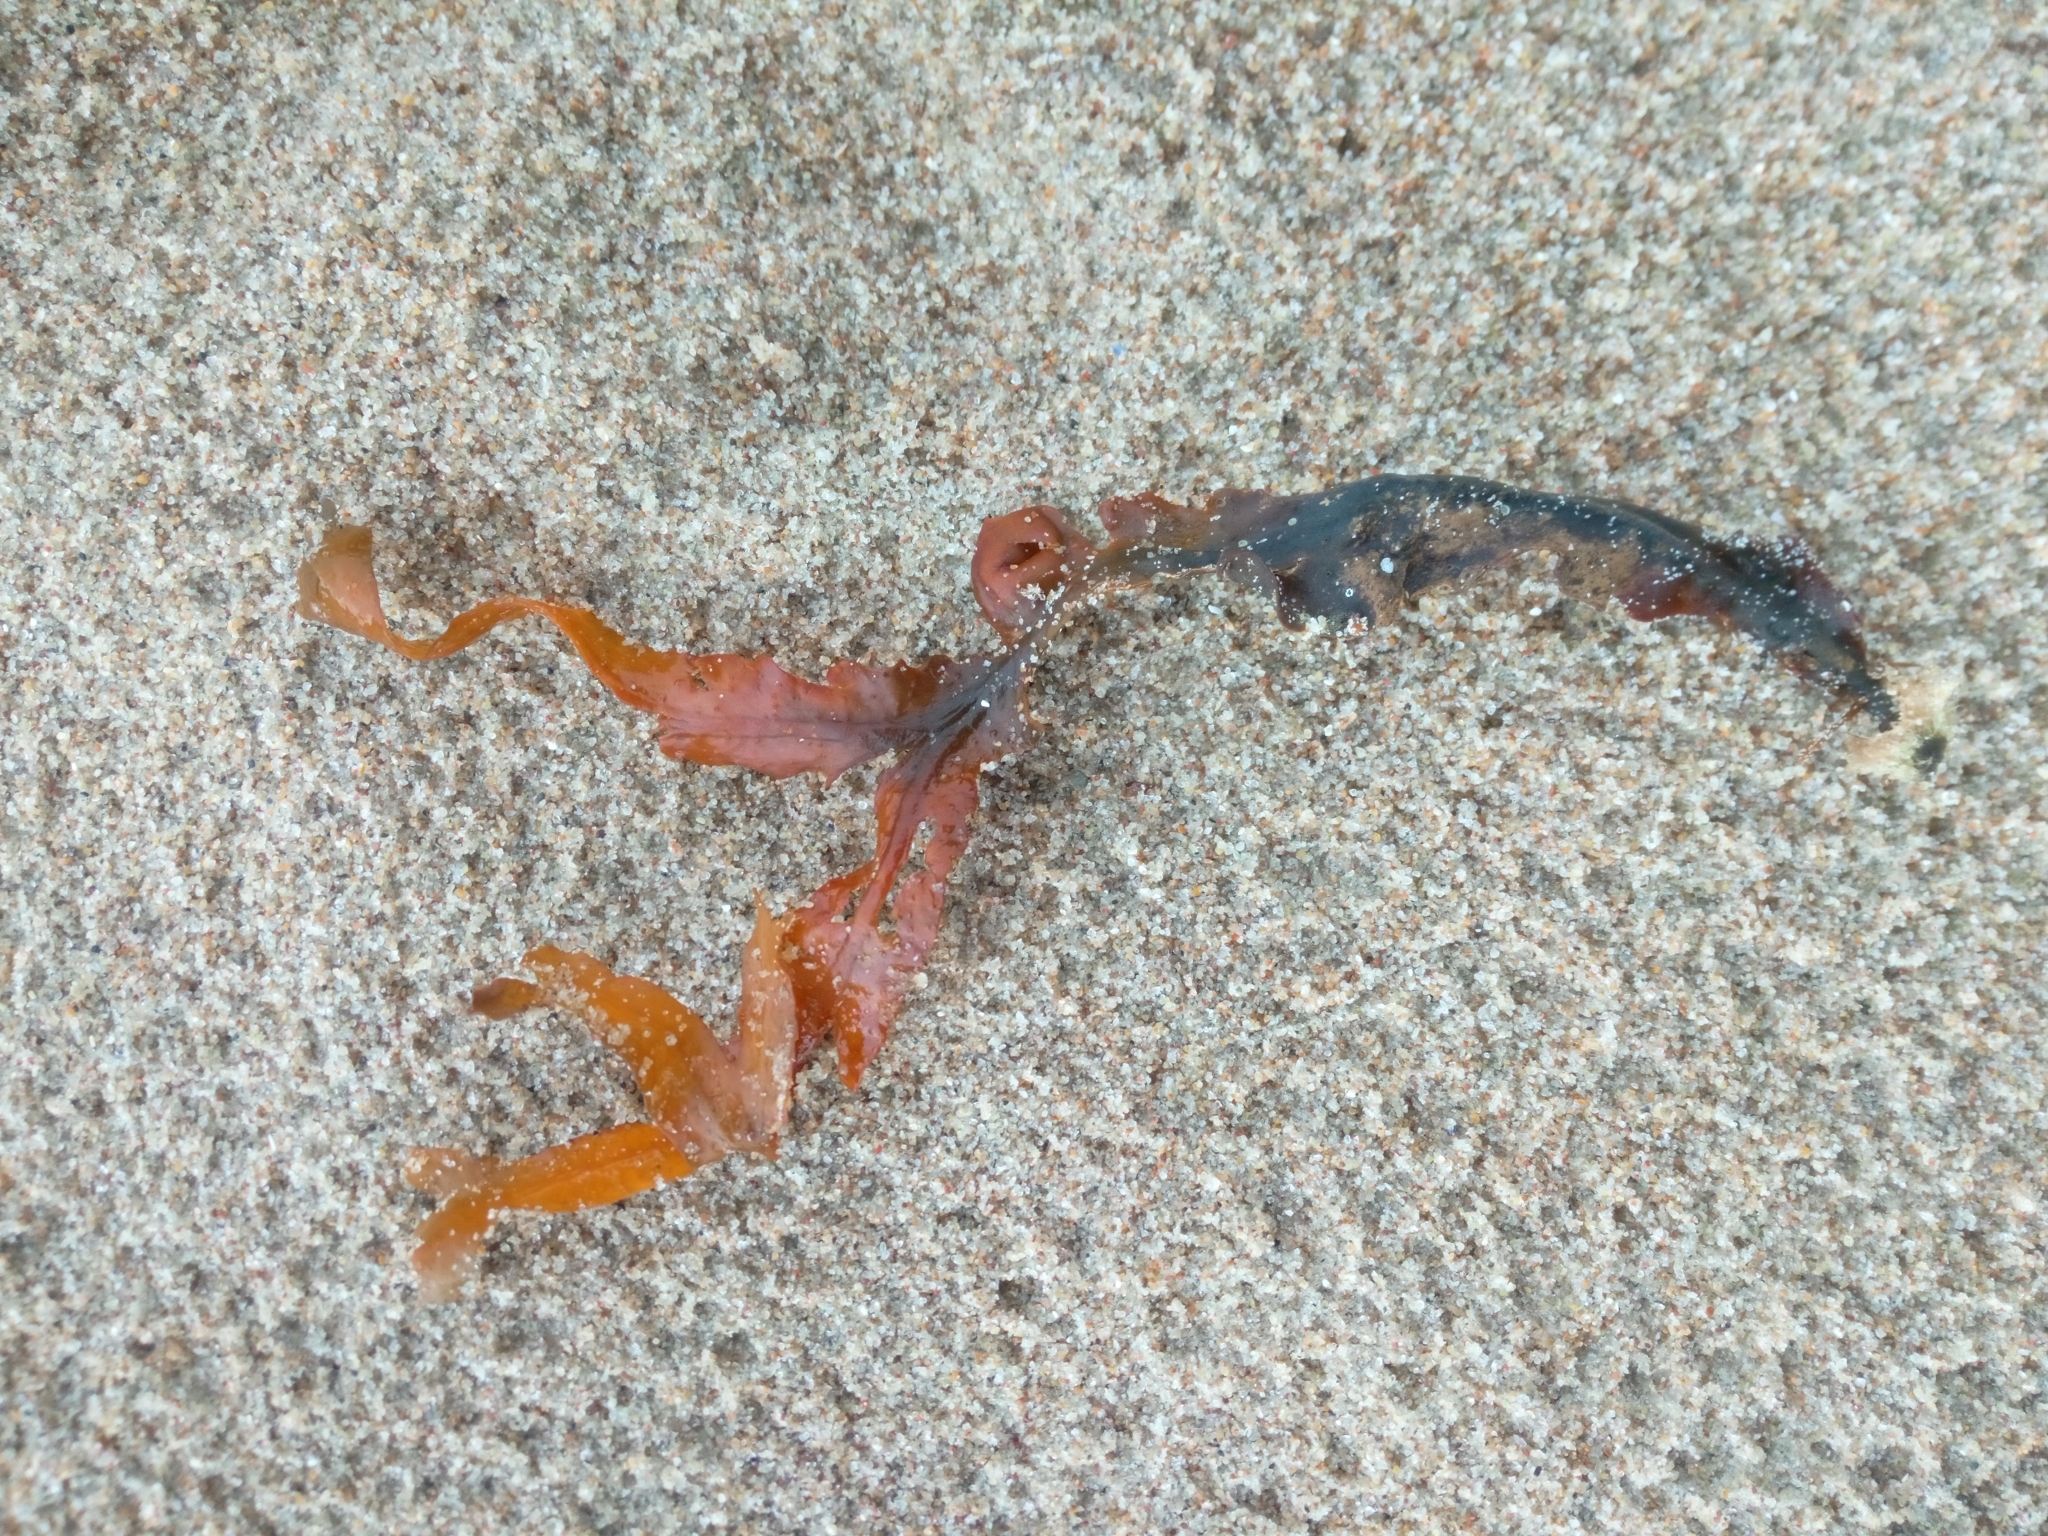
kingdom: Chromista
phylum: Ochrophyta
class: Phaeophyceae
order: Fucales
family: Fucaceae
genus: Fucus
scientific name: Fucus vesiculosus
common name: Bladder wrack
